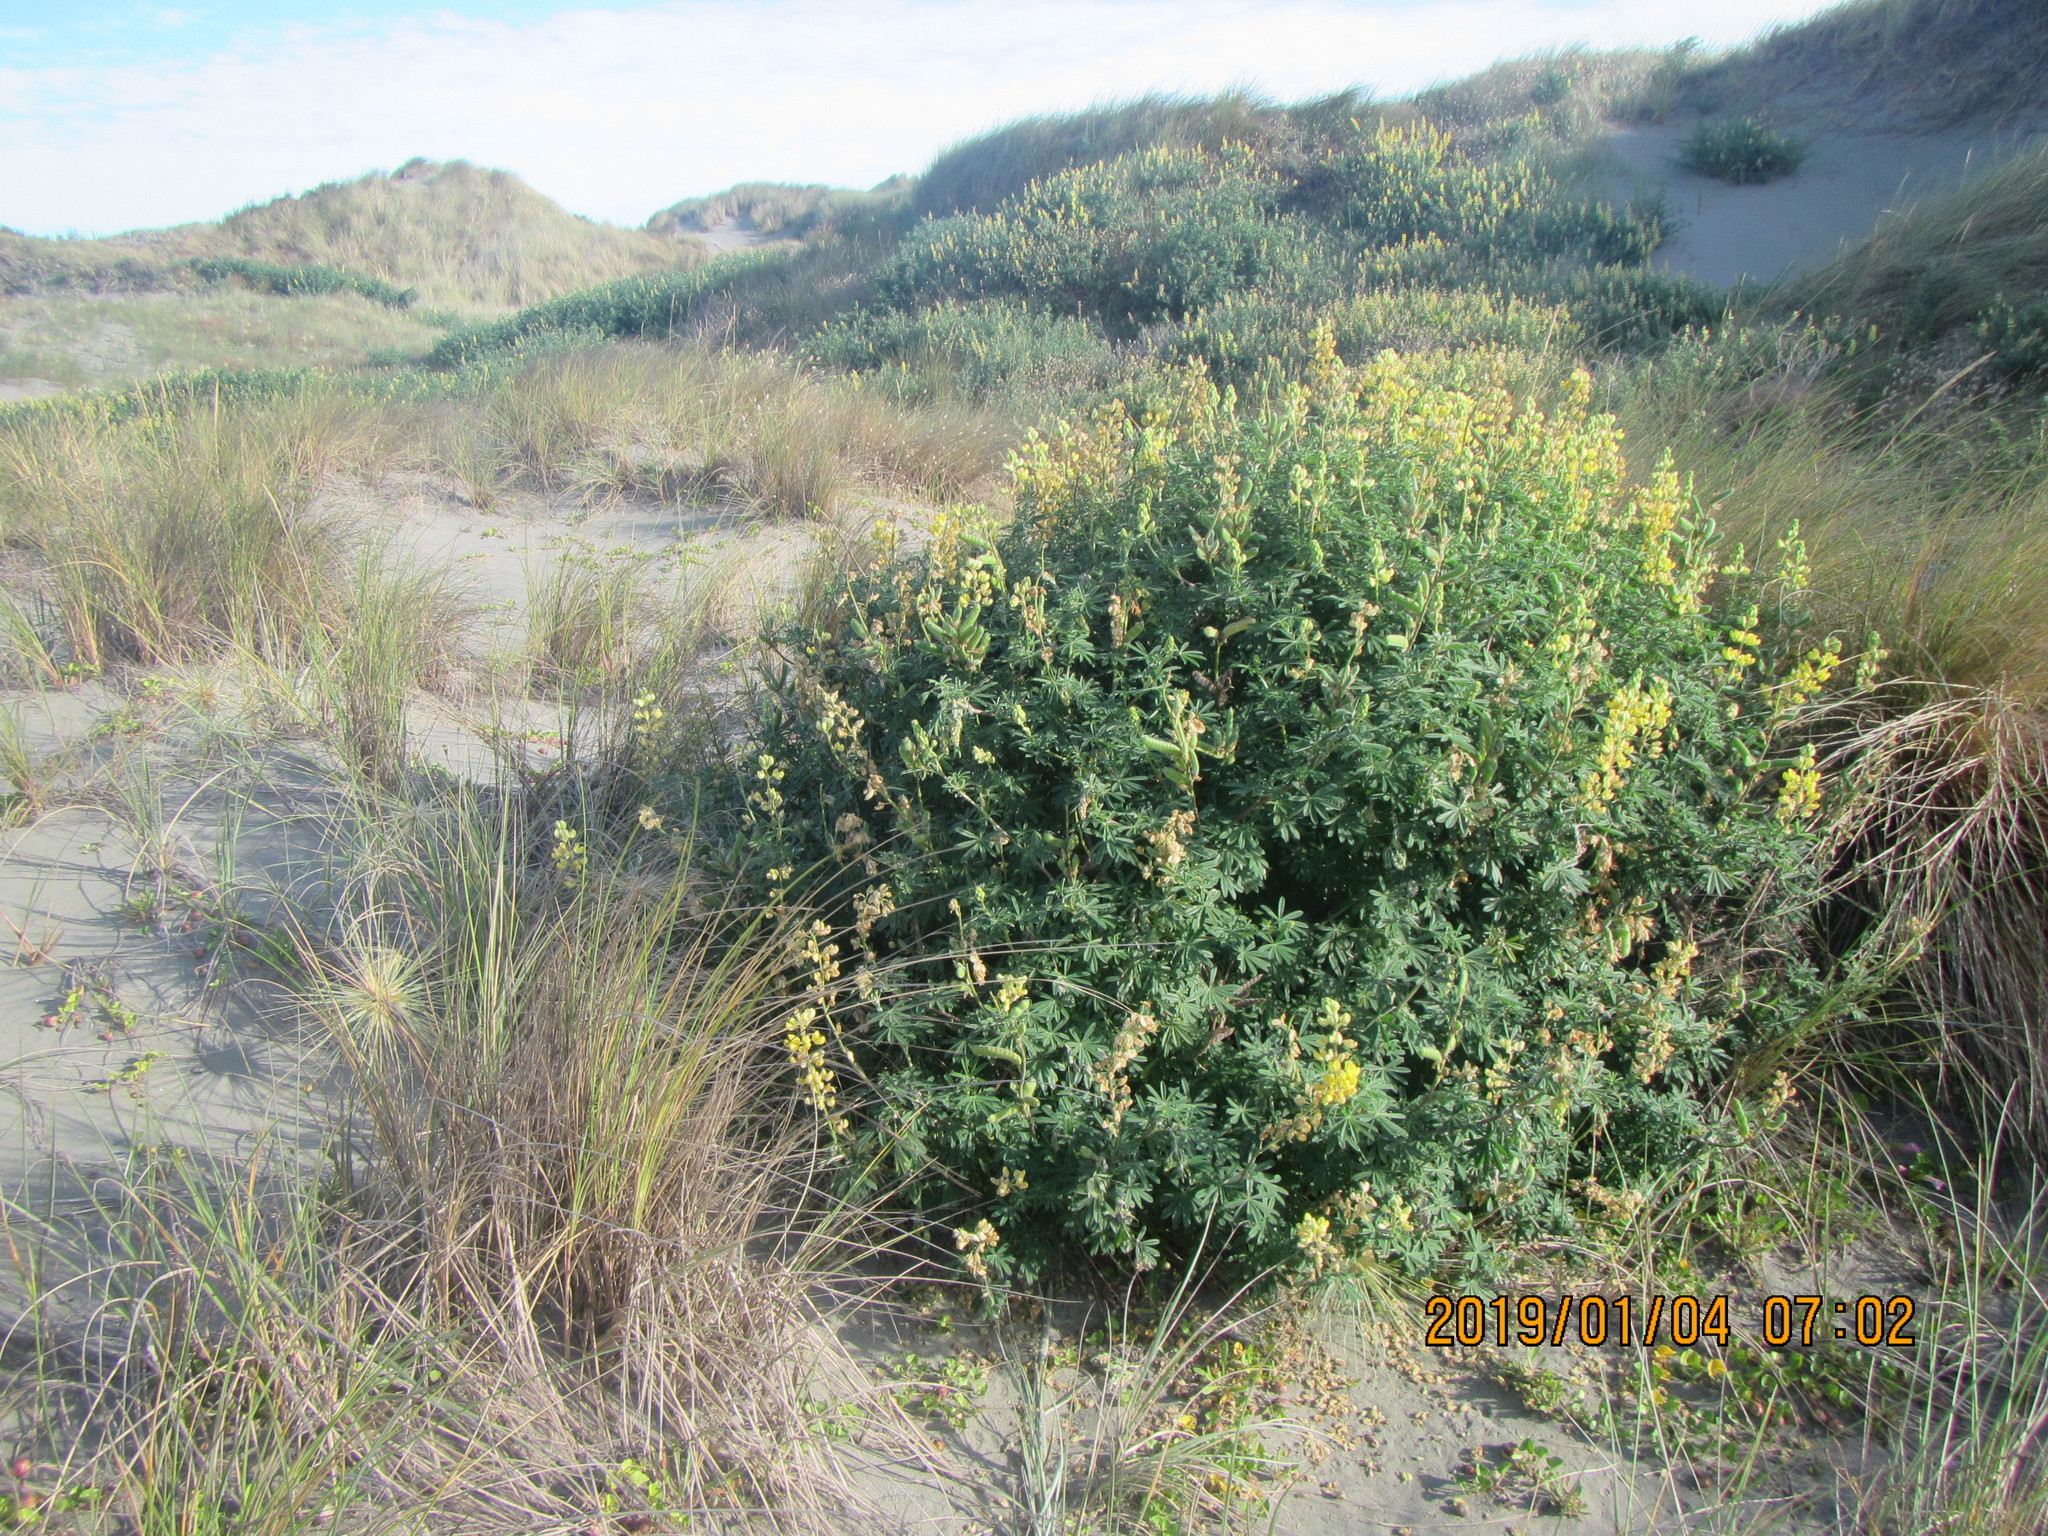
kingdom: Plantae
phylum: Tracheophyta
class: Magnoliopsida
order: Fabales
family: Fabaceae
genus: Lupinus
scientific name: Lupinus arboreus
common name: Yellow bush lupine
